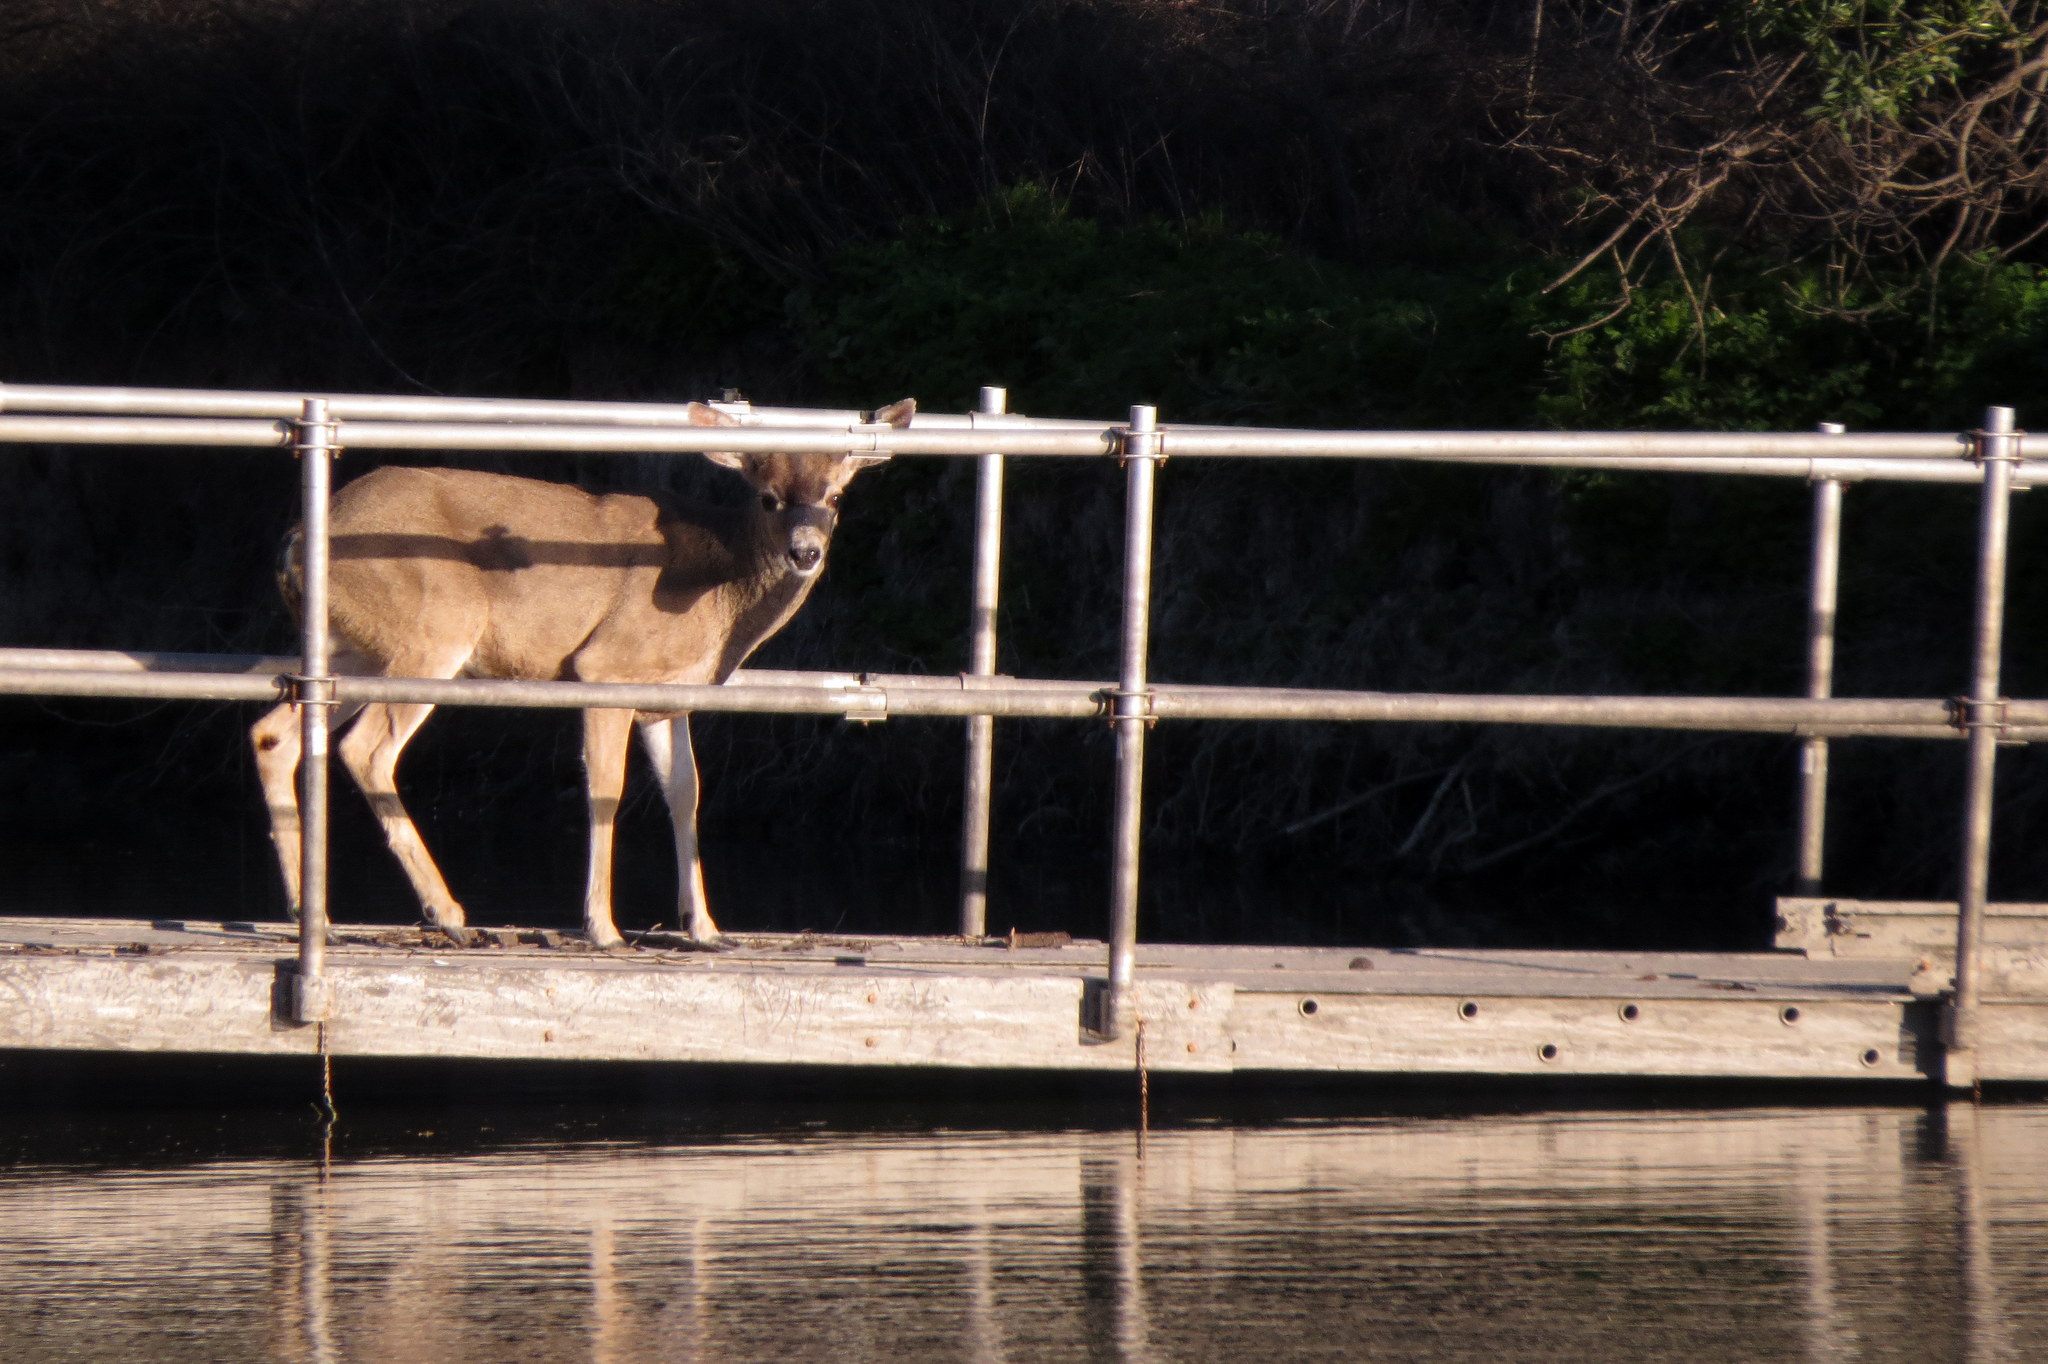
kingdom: Animalia
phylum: Chordata
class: Mammalia
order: Artiodactyla
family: Cervidae
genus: Odocoileus
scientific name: Odocoileus hemionus
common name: Mule deer
